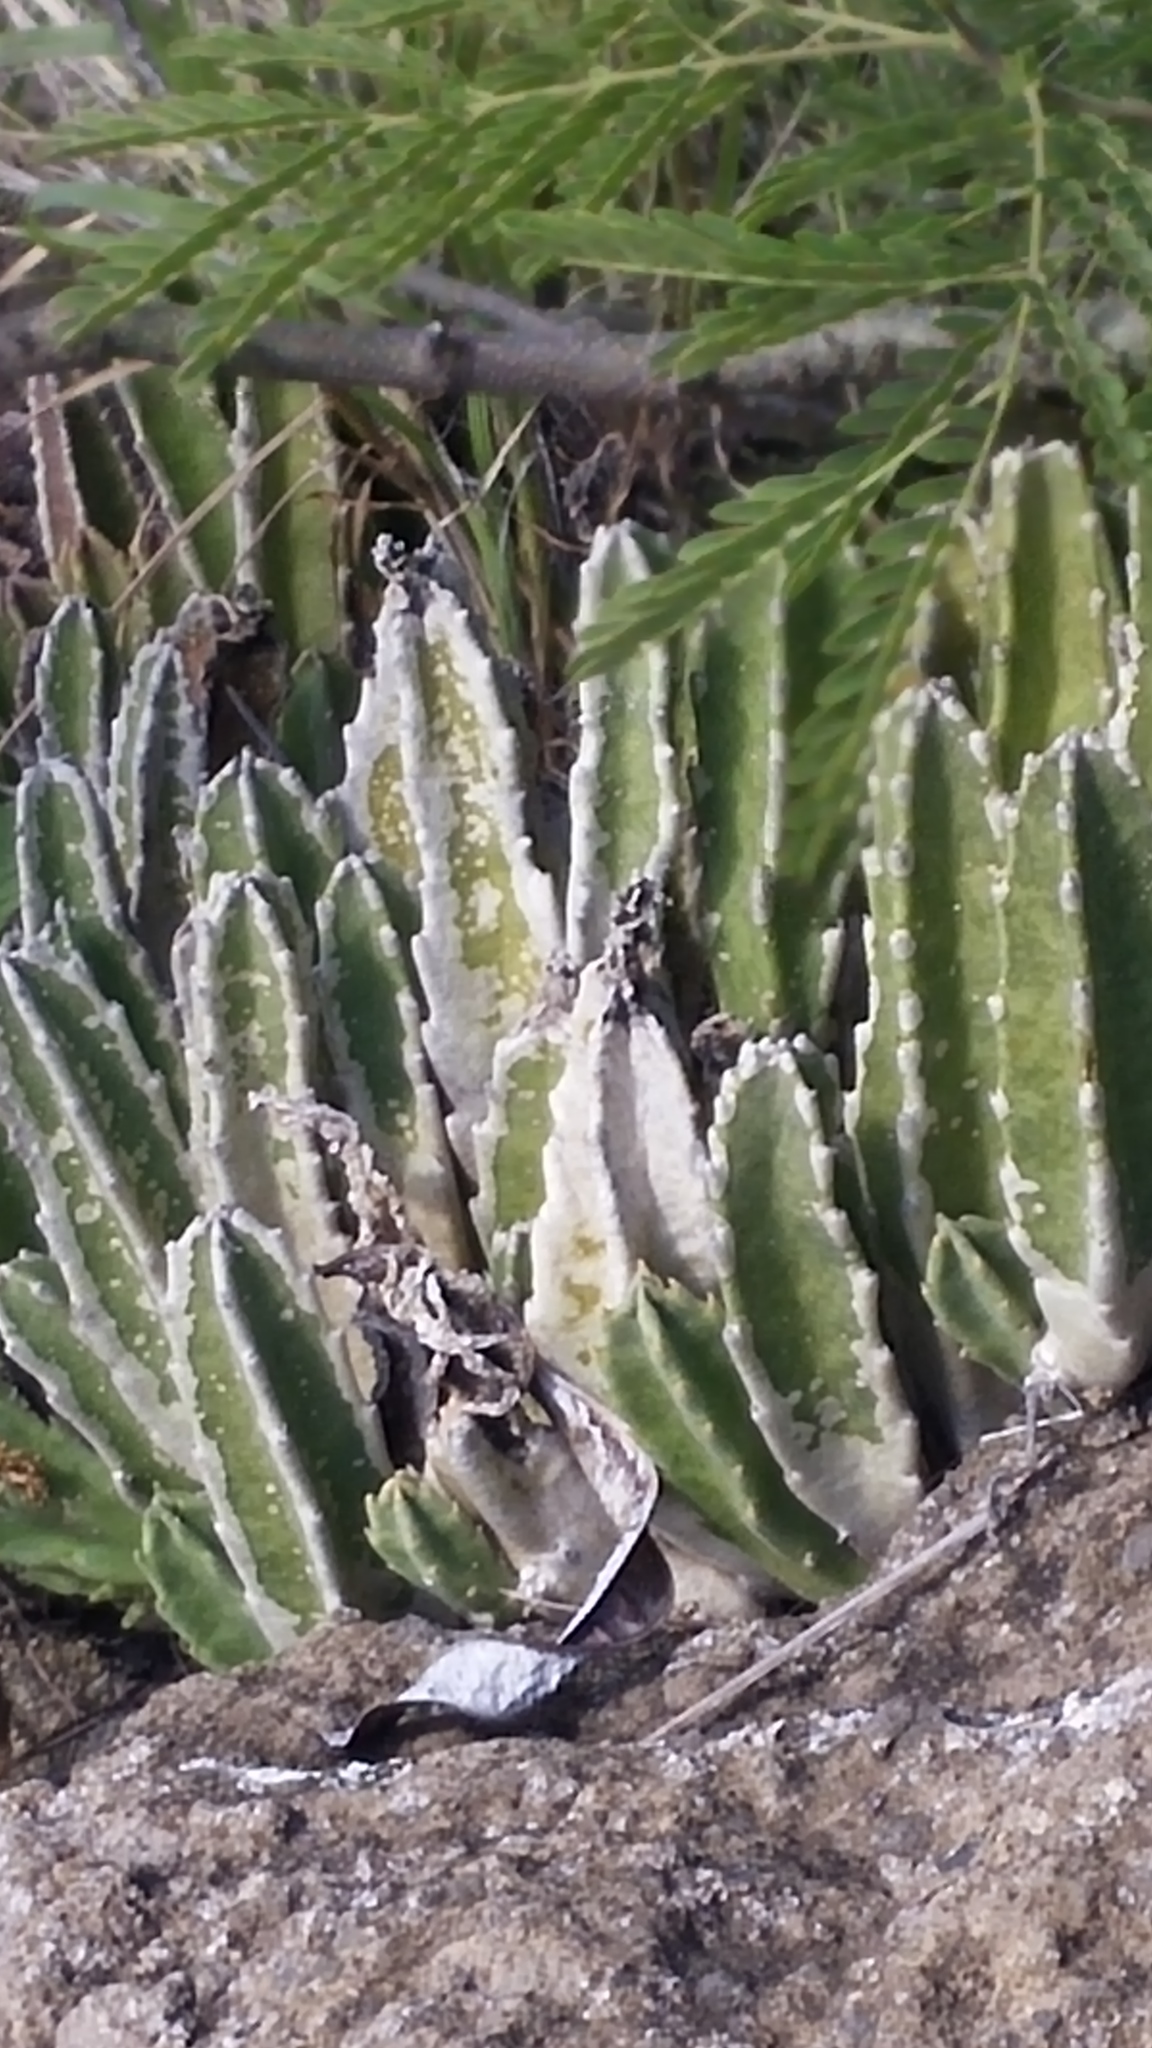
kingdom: Plantae
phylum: Tracheophyta
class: Magnoliopsida
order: Gentianales
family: Apocynaceae
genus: Ceropegia
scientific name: Ceropegia gigantea
